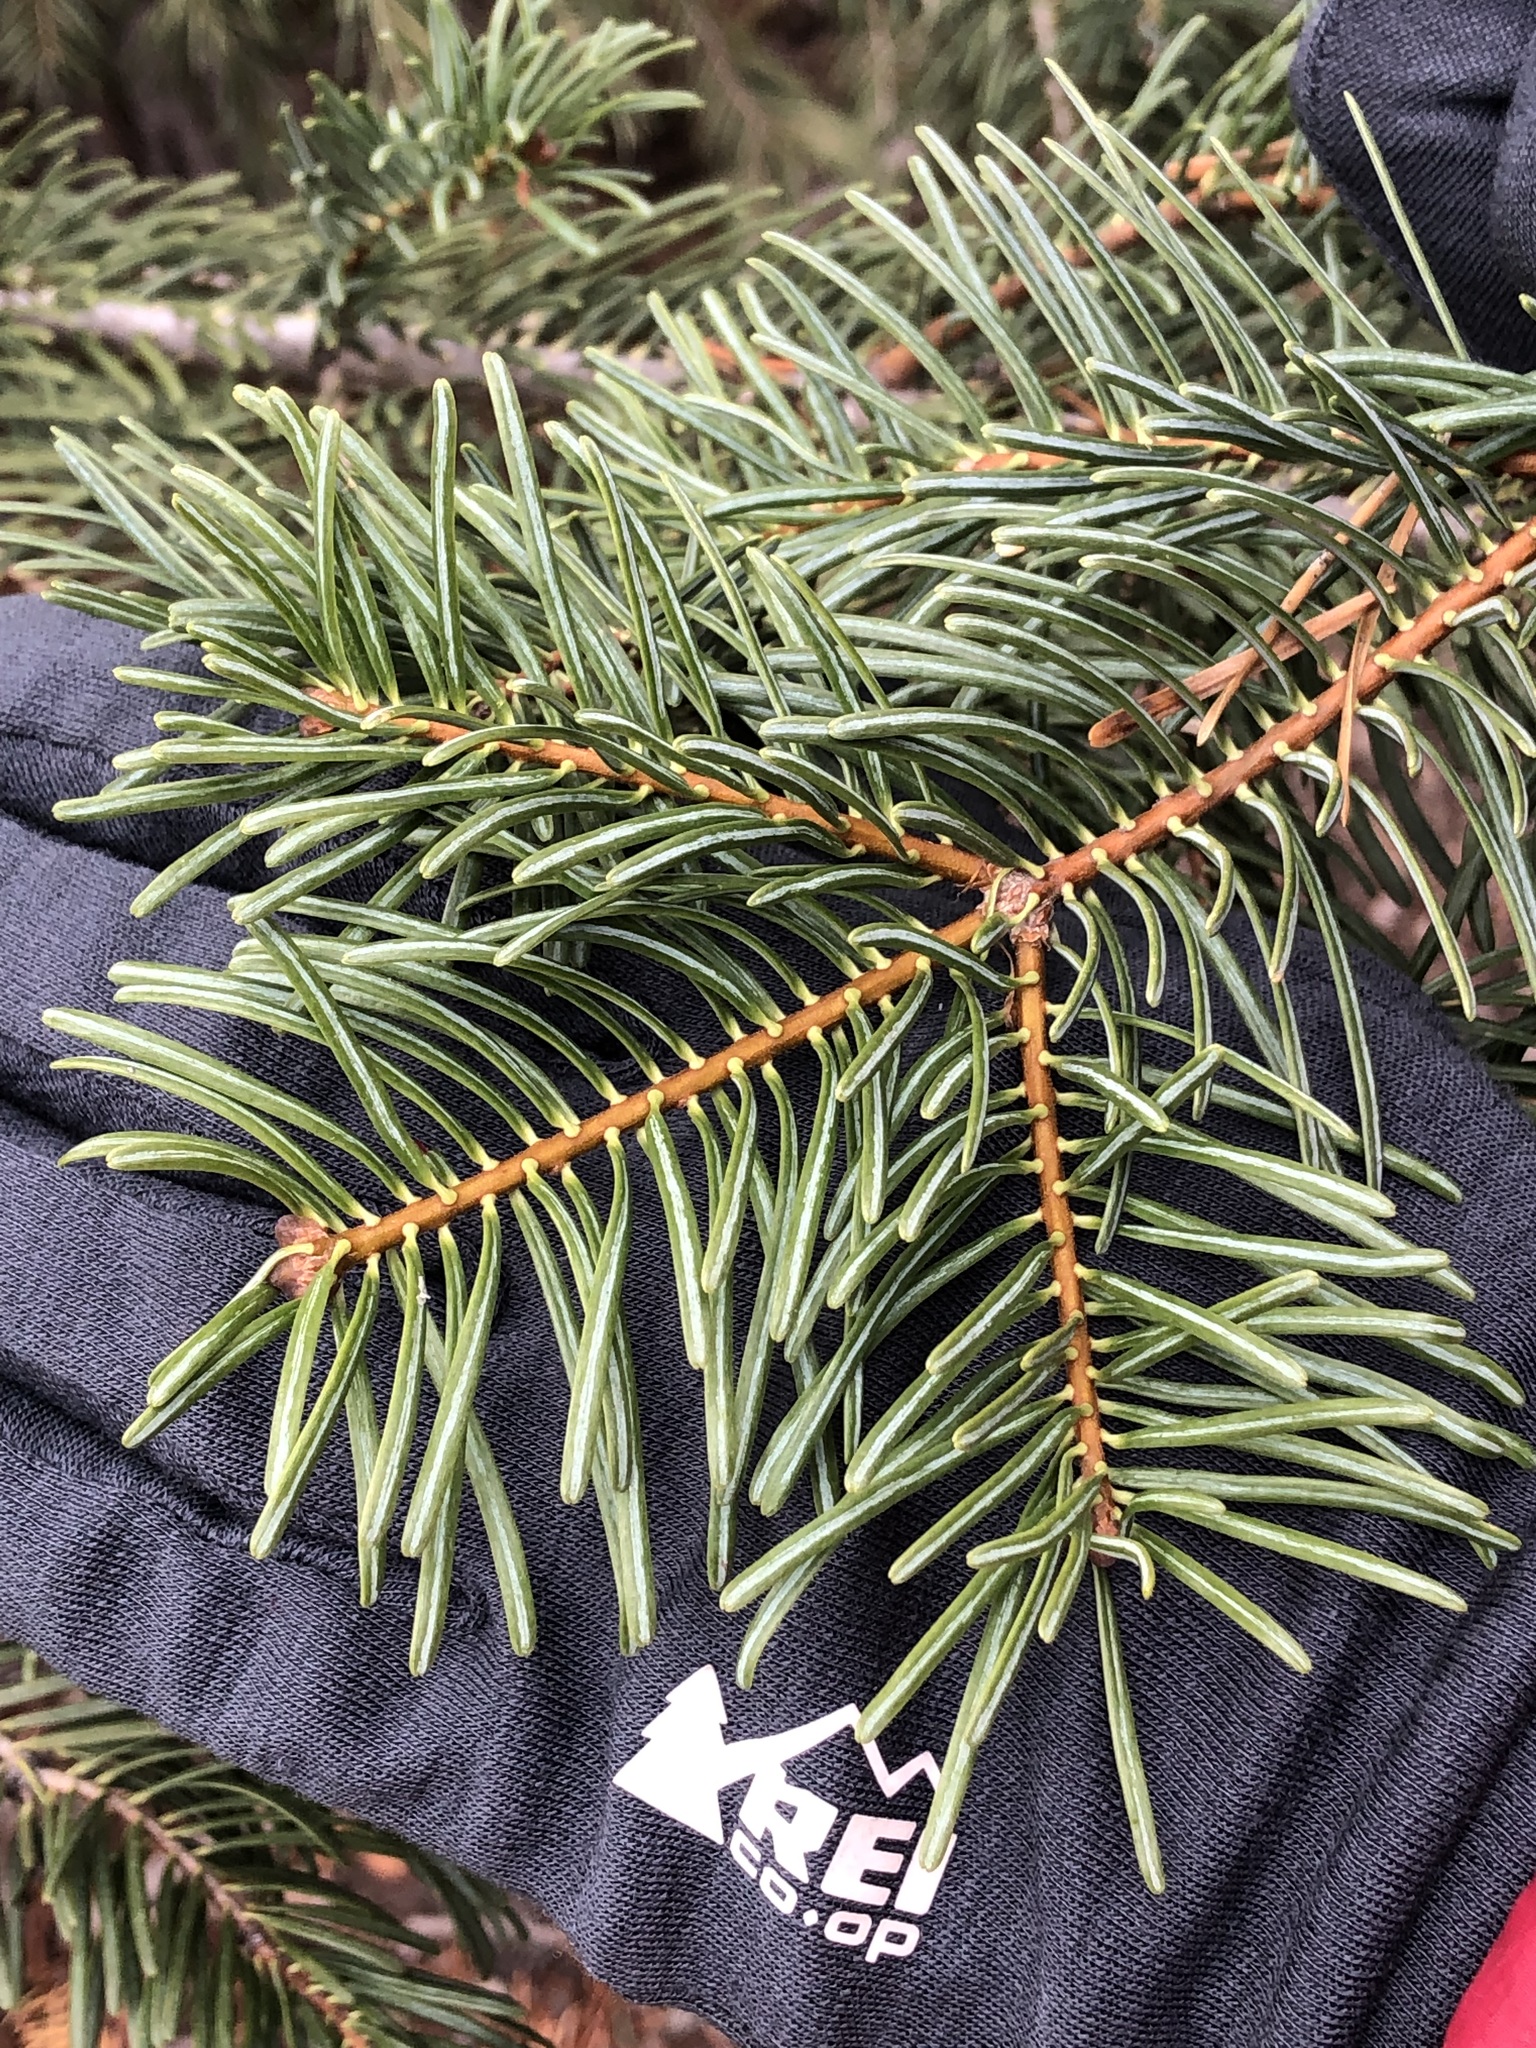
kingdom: Plantae
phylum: Tracheophyta
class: Pinopsida
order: Pinales
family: Pinaceae
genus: Abies
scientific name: Abies concolor
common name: Colorado fir
